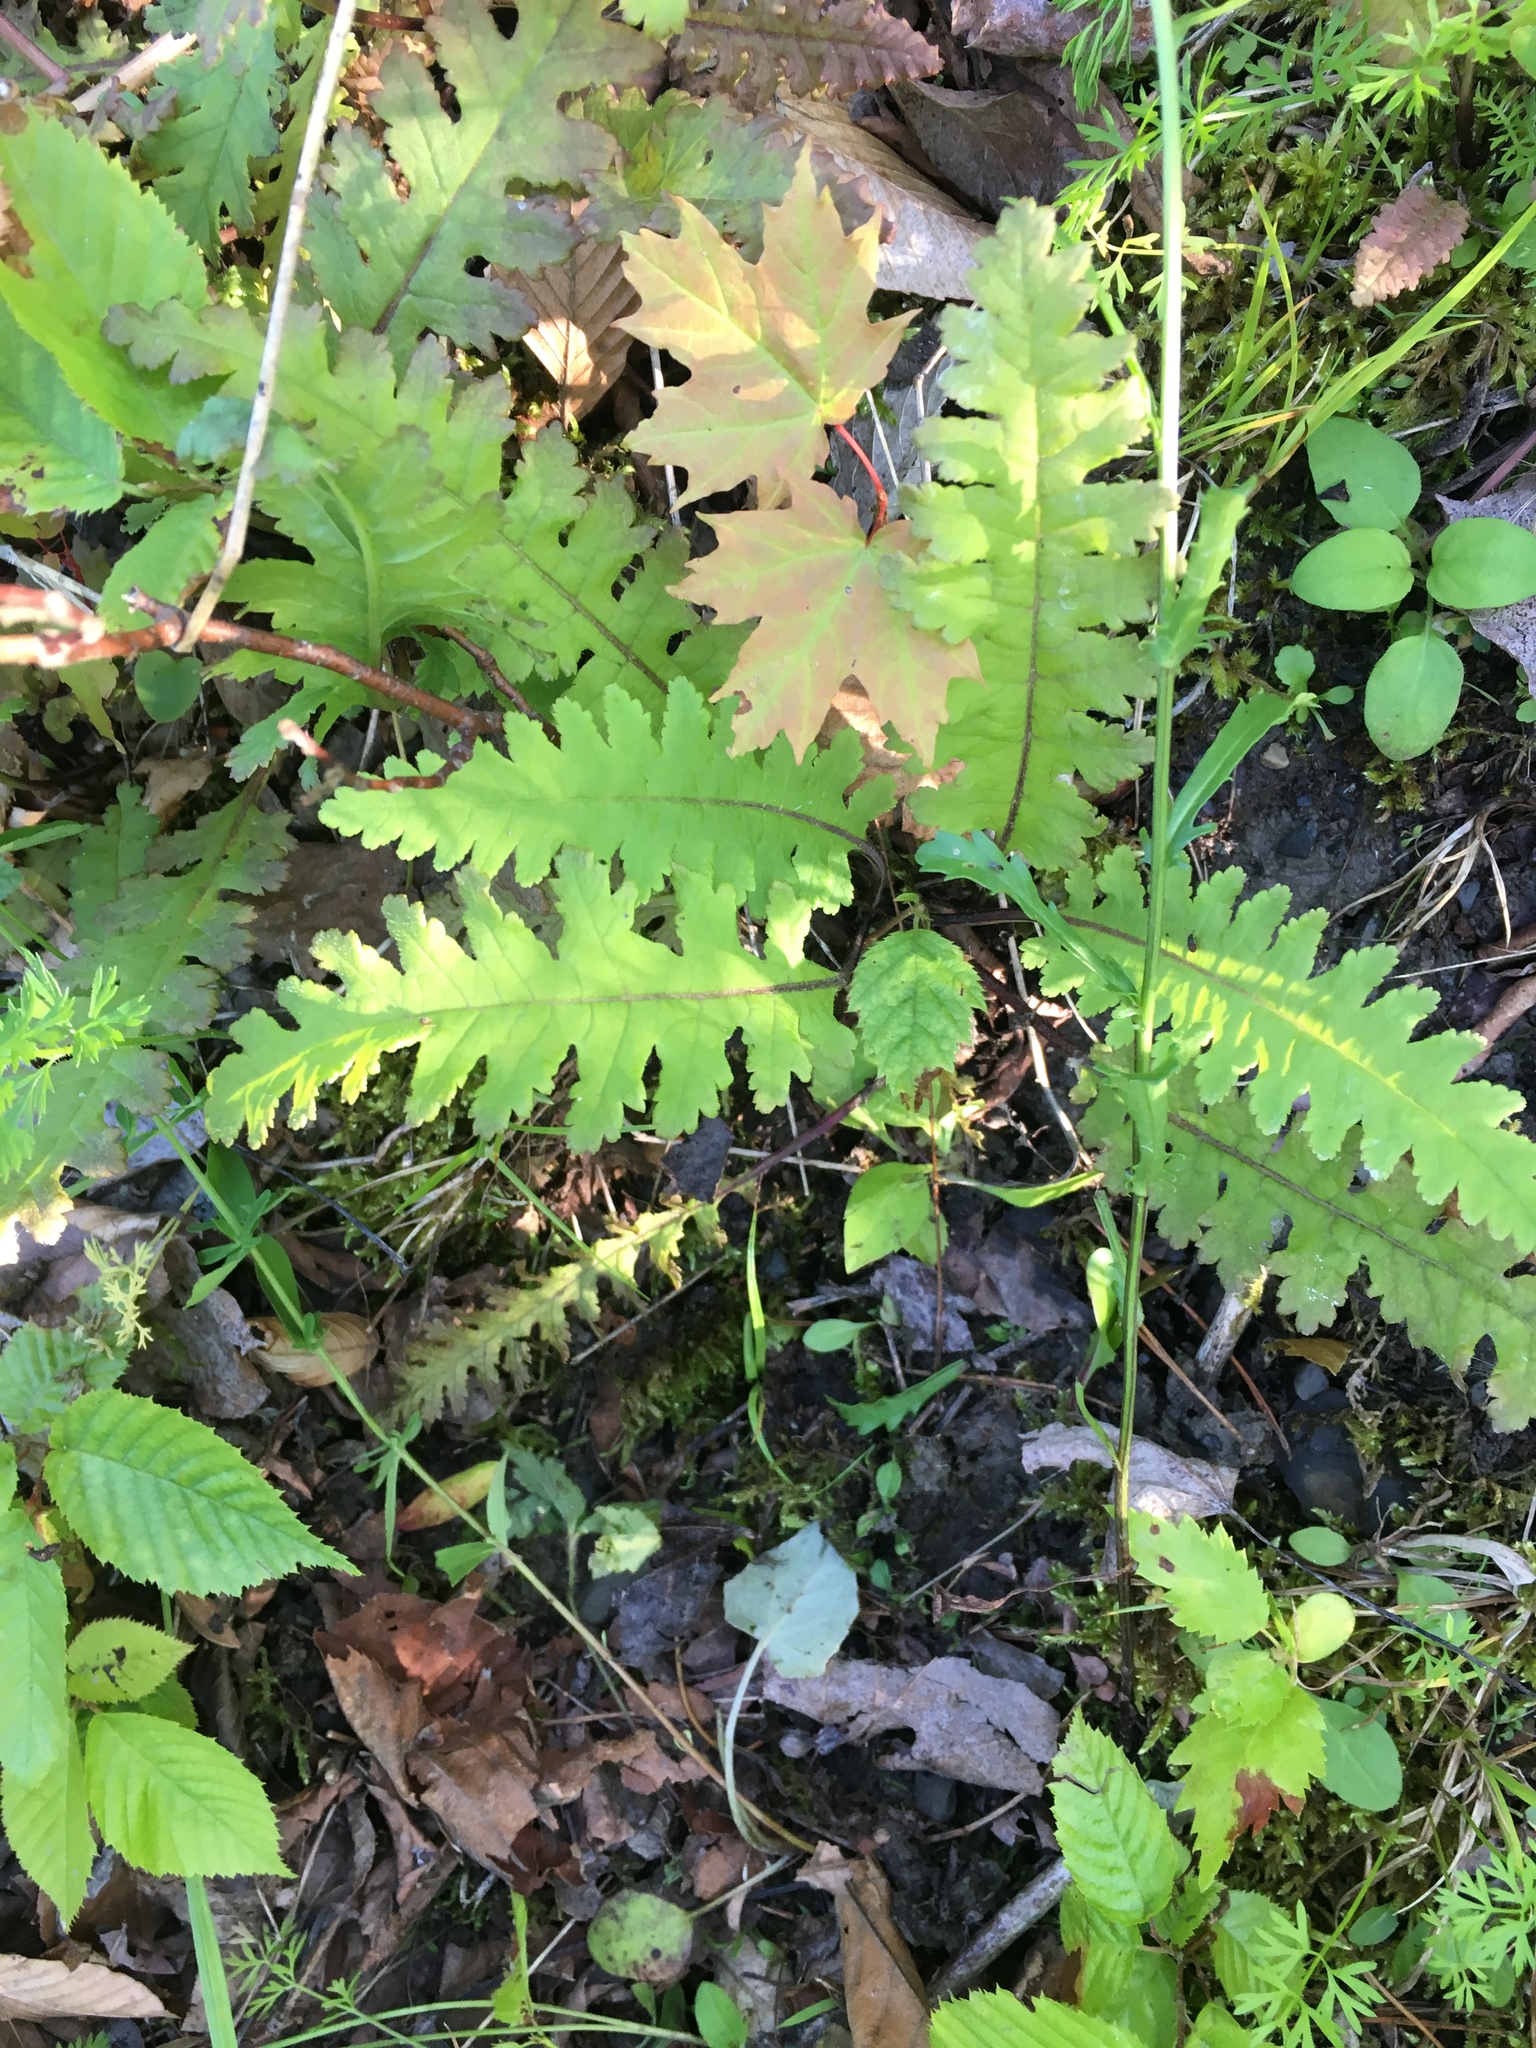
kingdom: Plantae
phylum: Tracheophyta
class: Magnoliopsida
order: Lamiales
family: Orobanchaceae
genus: Pedicularis
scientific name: Pedicularis canadensis
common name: Early lousewort
